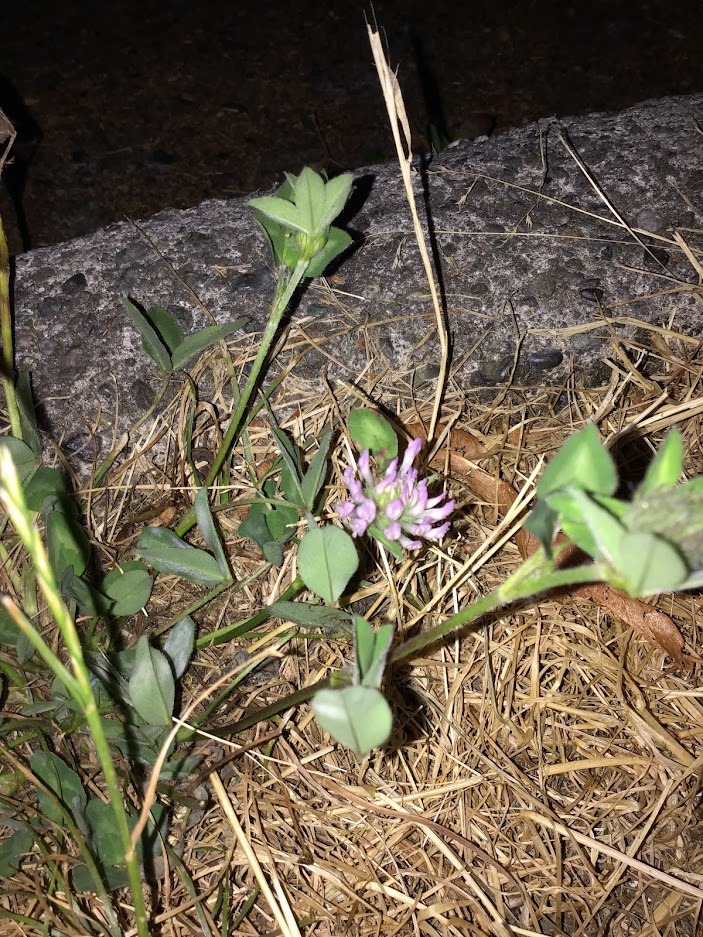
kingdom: Plantae
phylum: Tracheophyta
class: Magnoliopsida
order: Fabales
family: Fabaceae
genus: Trifolium
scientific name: Trifolium pratense
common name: Red clover
